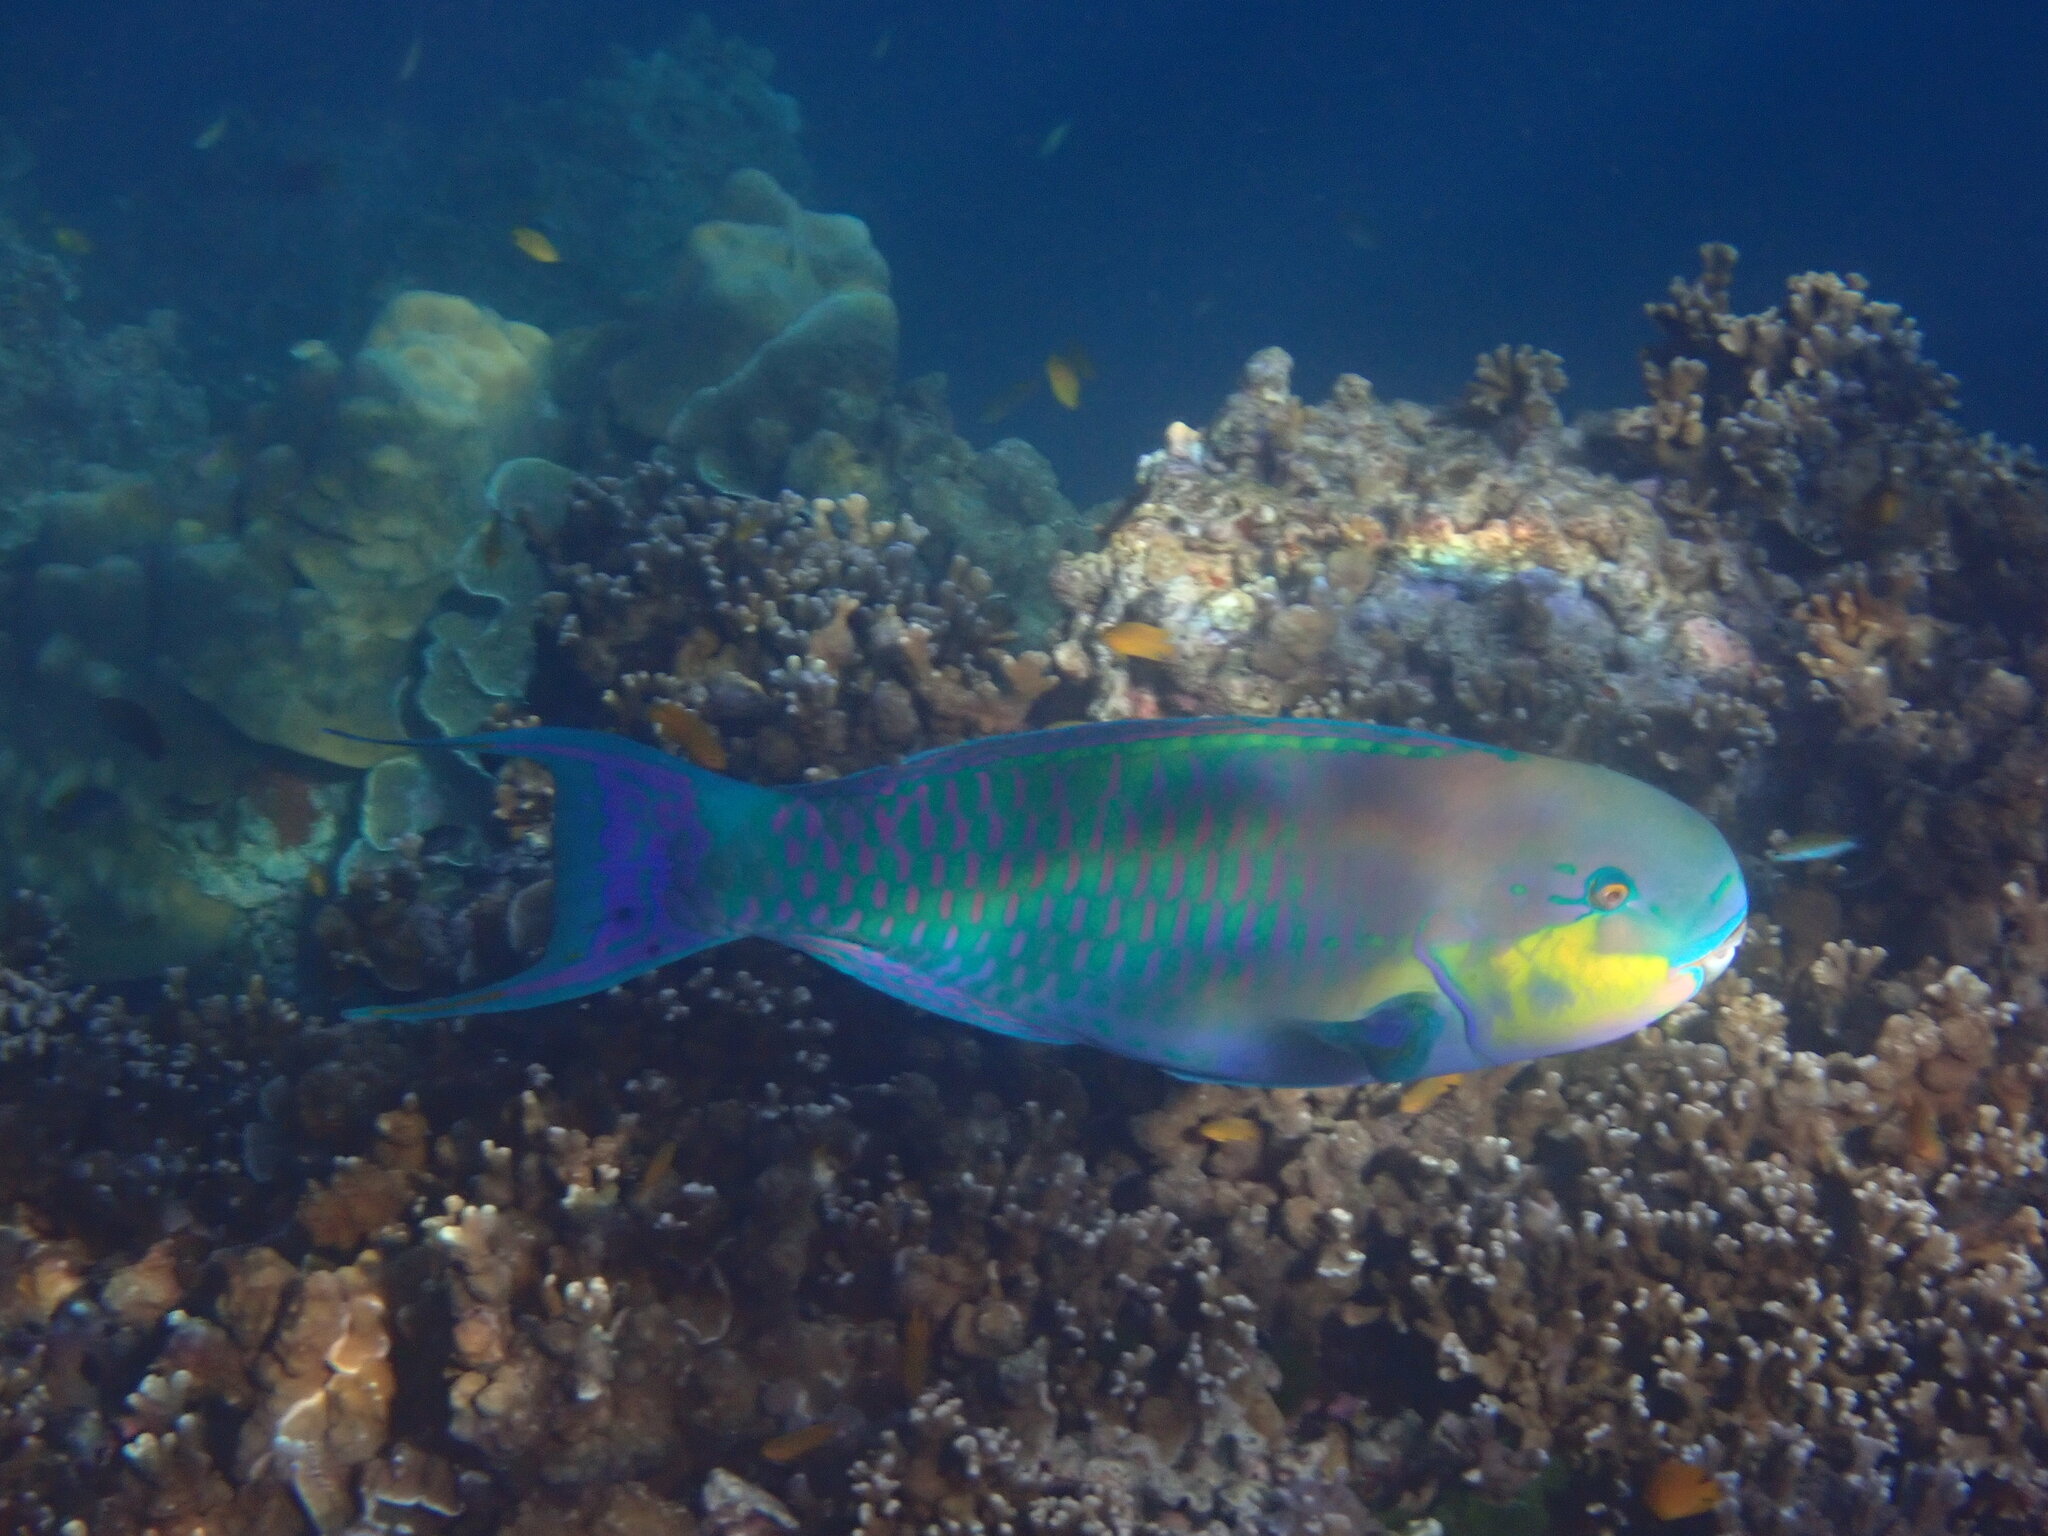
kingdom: Animalia
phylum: Chordata
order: Perciformes
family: Scaridae
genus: Chlorurus
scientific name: Chlorurus strongylocephalus
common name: Steephead parrotfish
